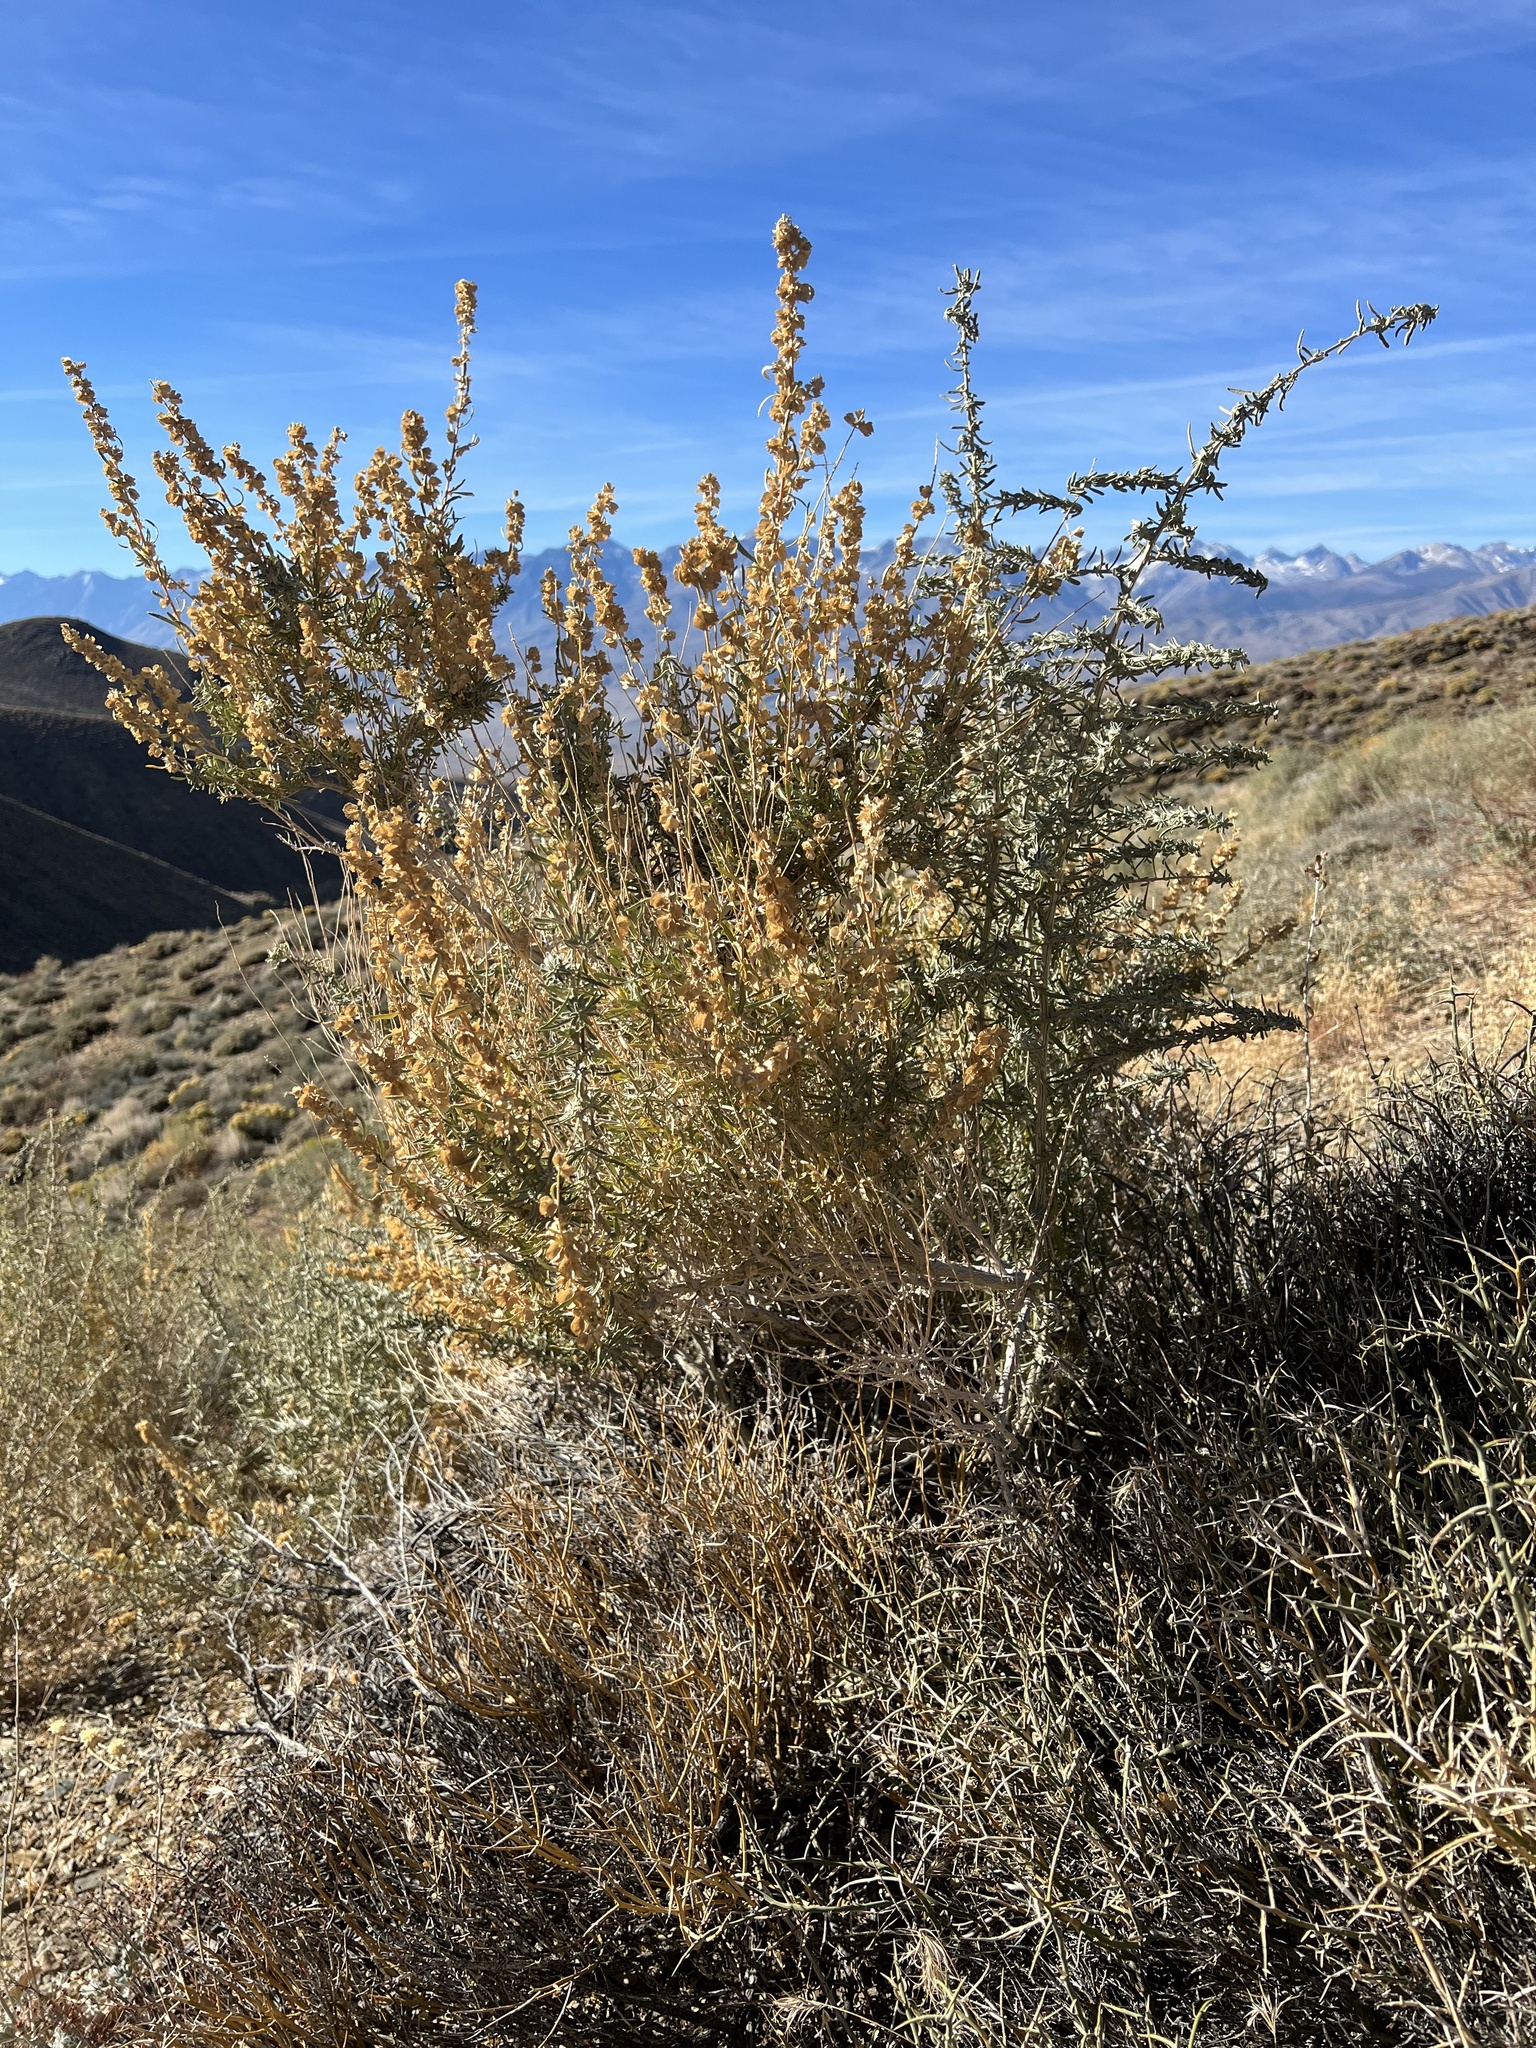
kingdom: Plantae
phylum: Tracheophyta
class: Magnoliopsida
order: Caryophyllales
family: Amaranthaceae
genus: Atriplex
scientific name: Atriplex canescens
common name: Four-wing saltbush
